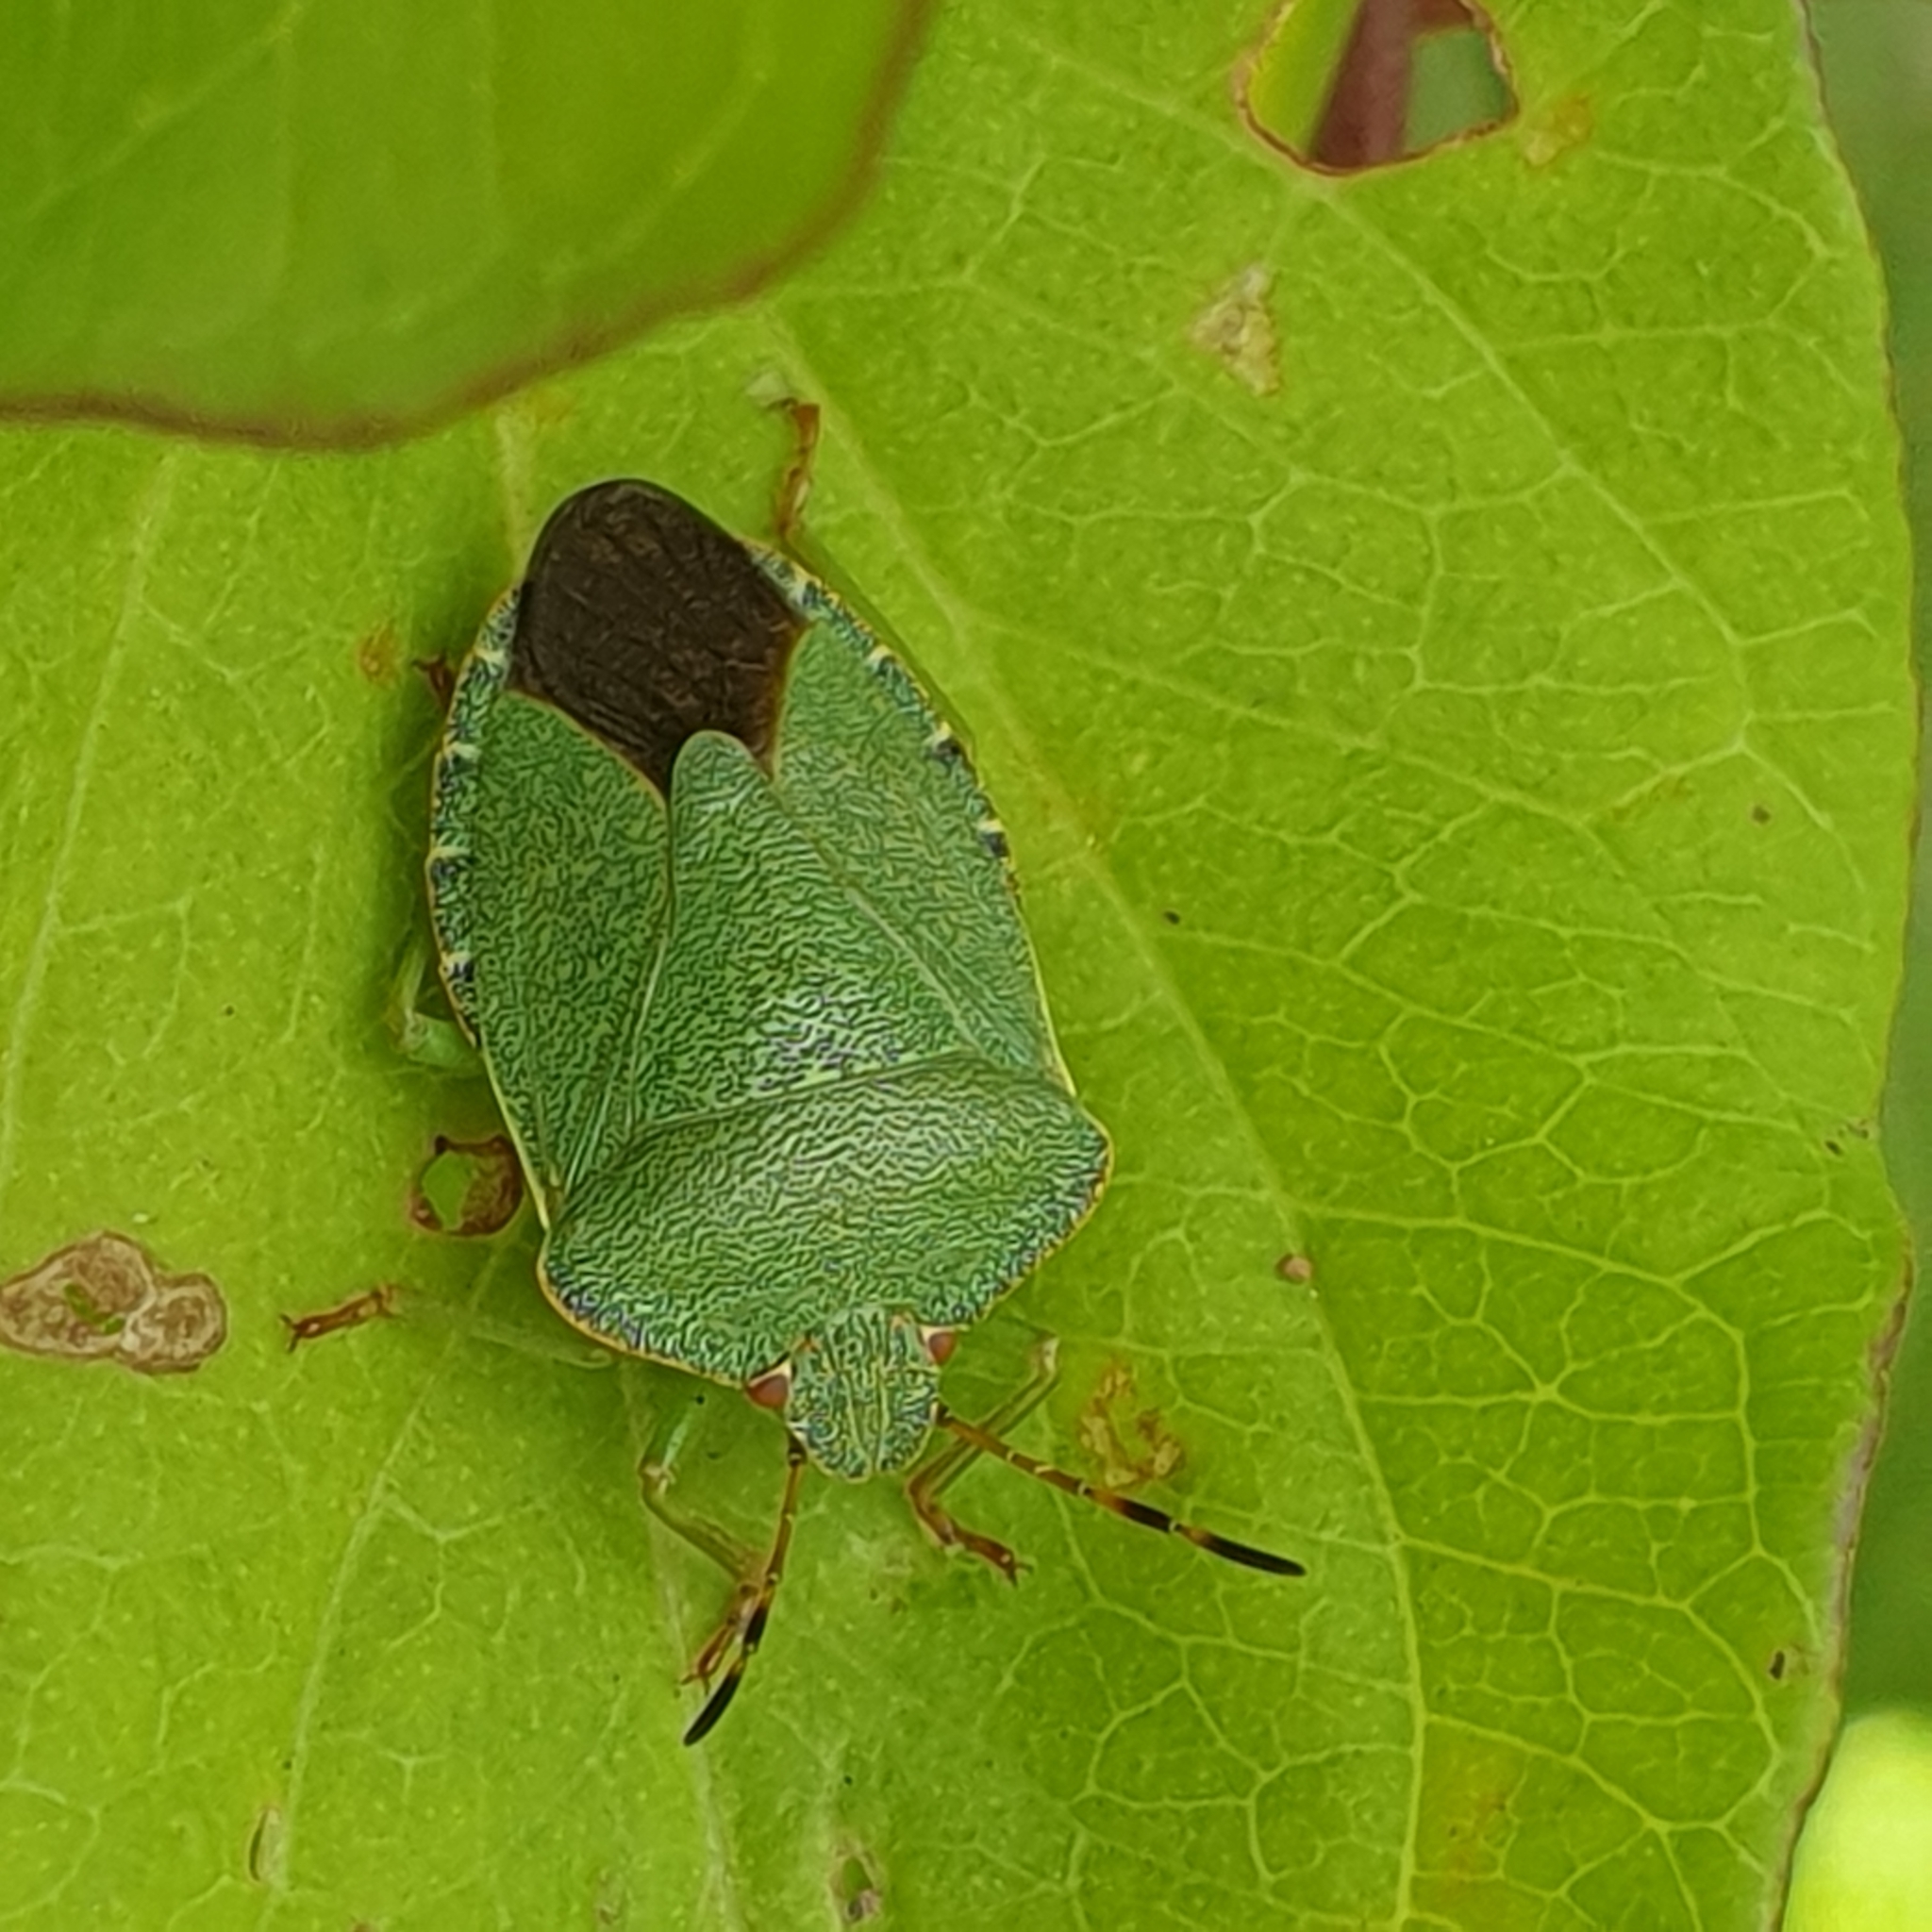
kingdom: Animalia
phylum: Arthropoda
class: Insecta
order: Hemiptera
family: Pentatomidae
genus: Palomena
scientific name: Palomena prasina
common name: Green shieldbug
